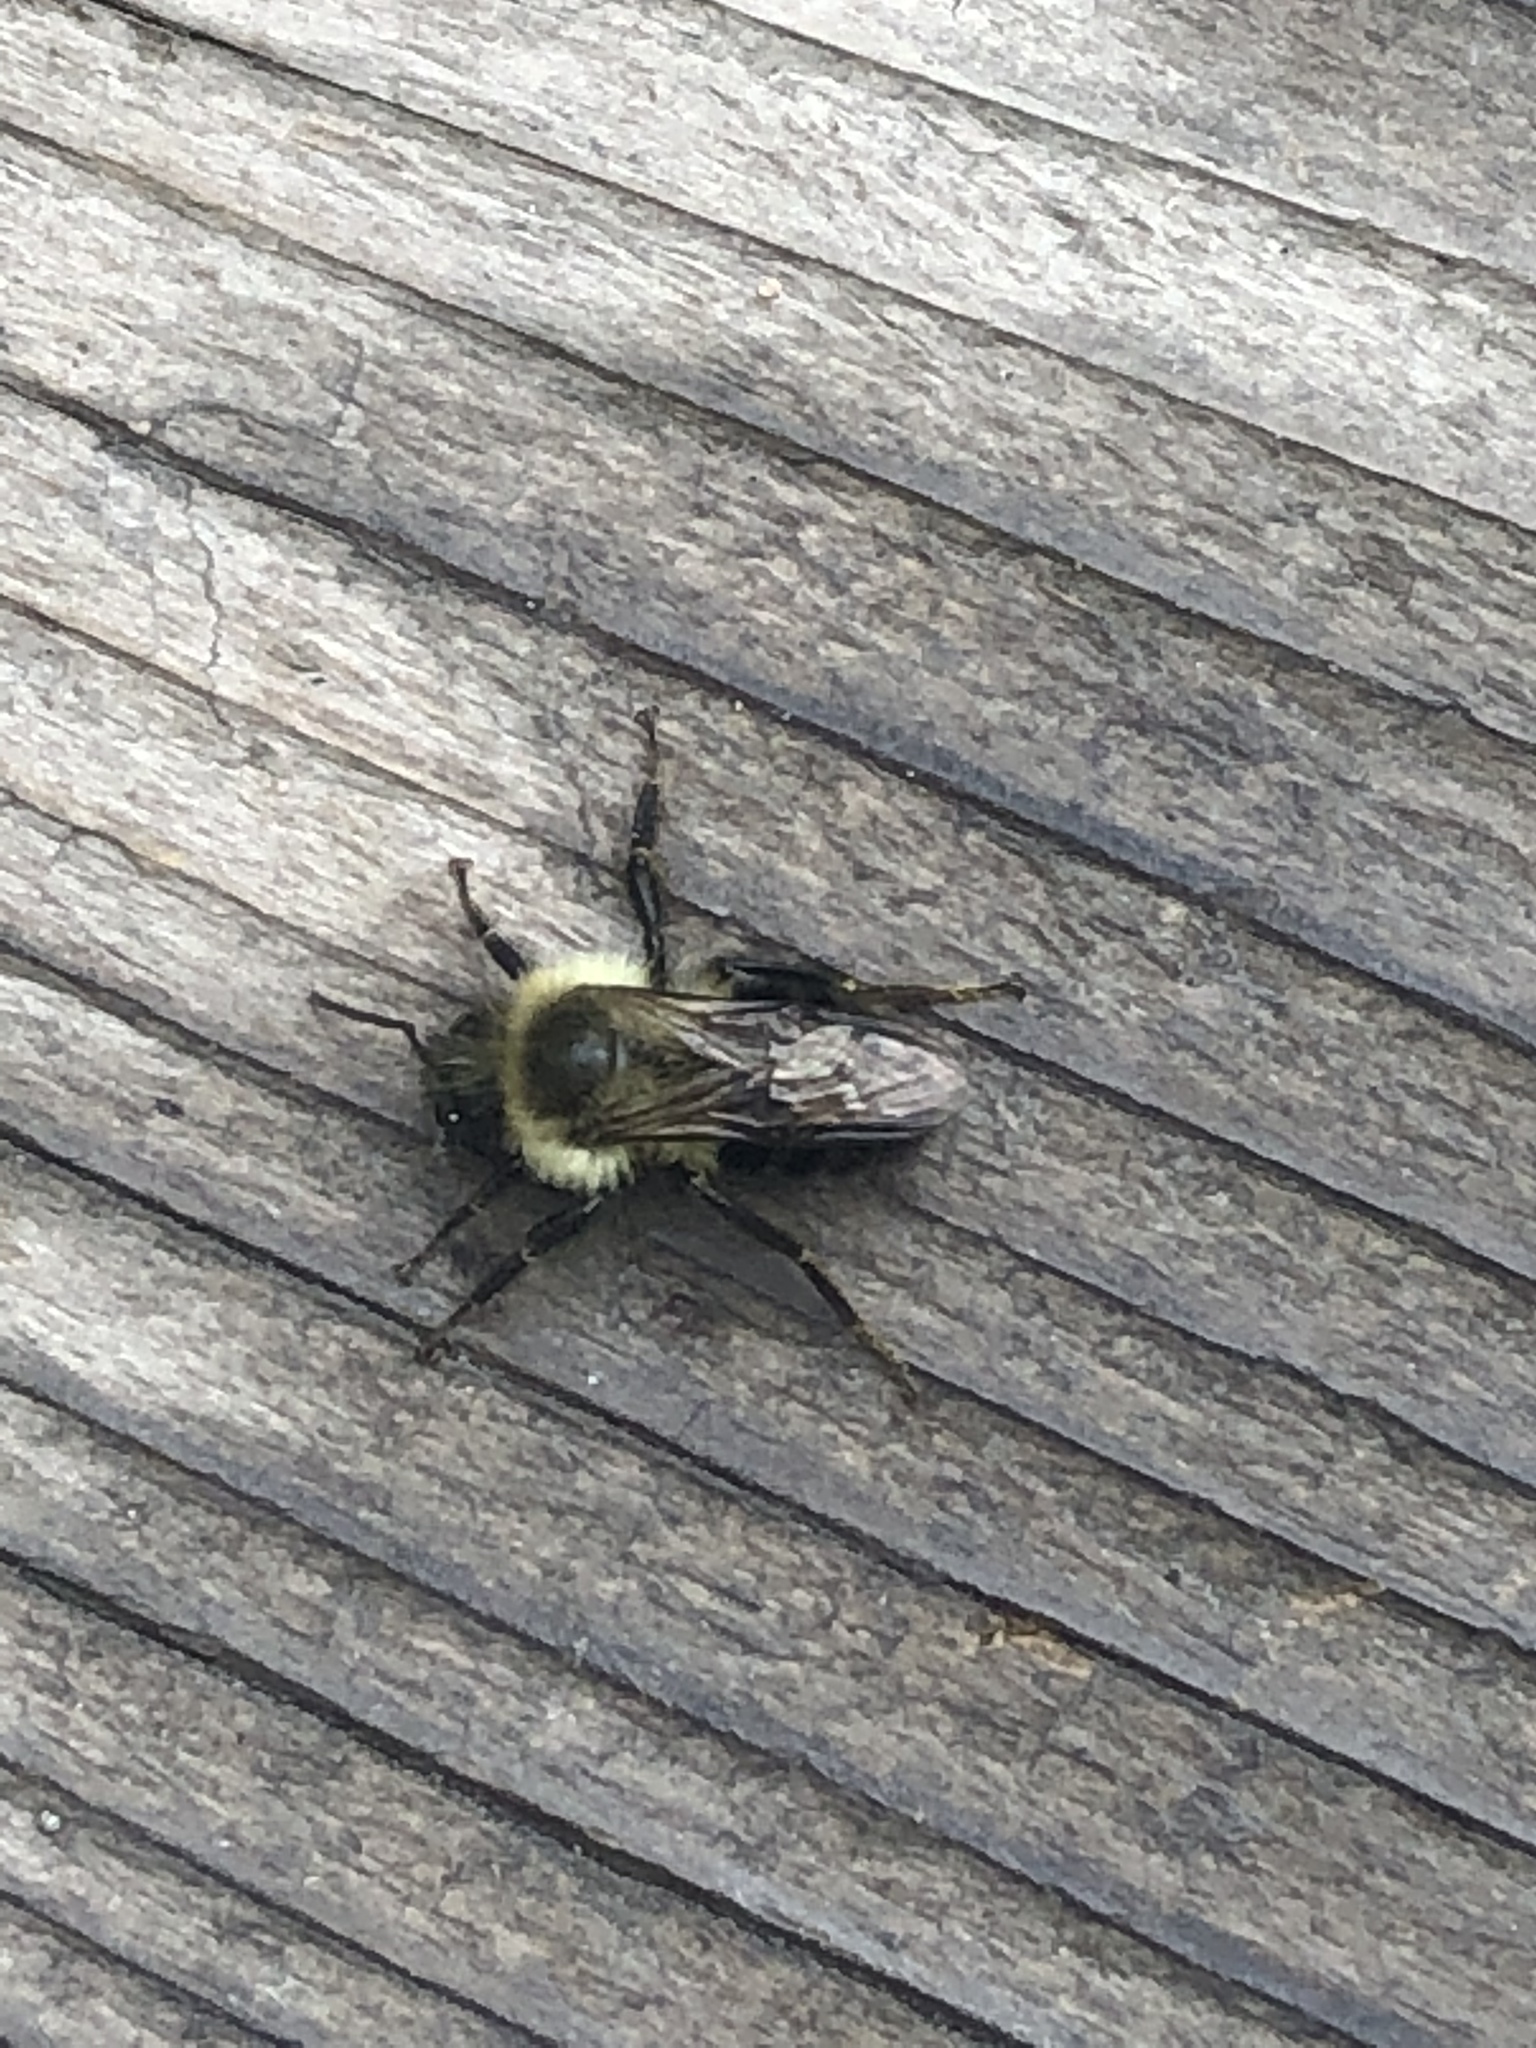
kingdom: Animalia
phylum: Arthropoda
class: Insecta
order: Hymenoptera
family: Apidae
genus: Bombus
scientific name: Bombus impatiens
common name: Common eastern bumble bee
